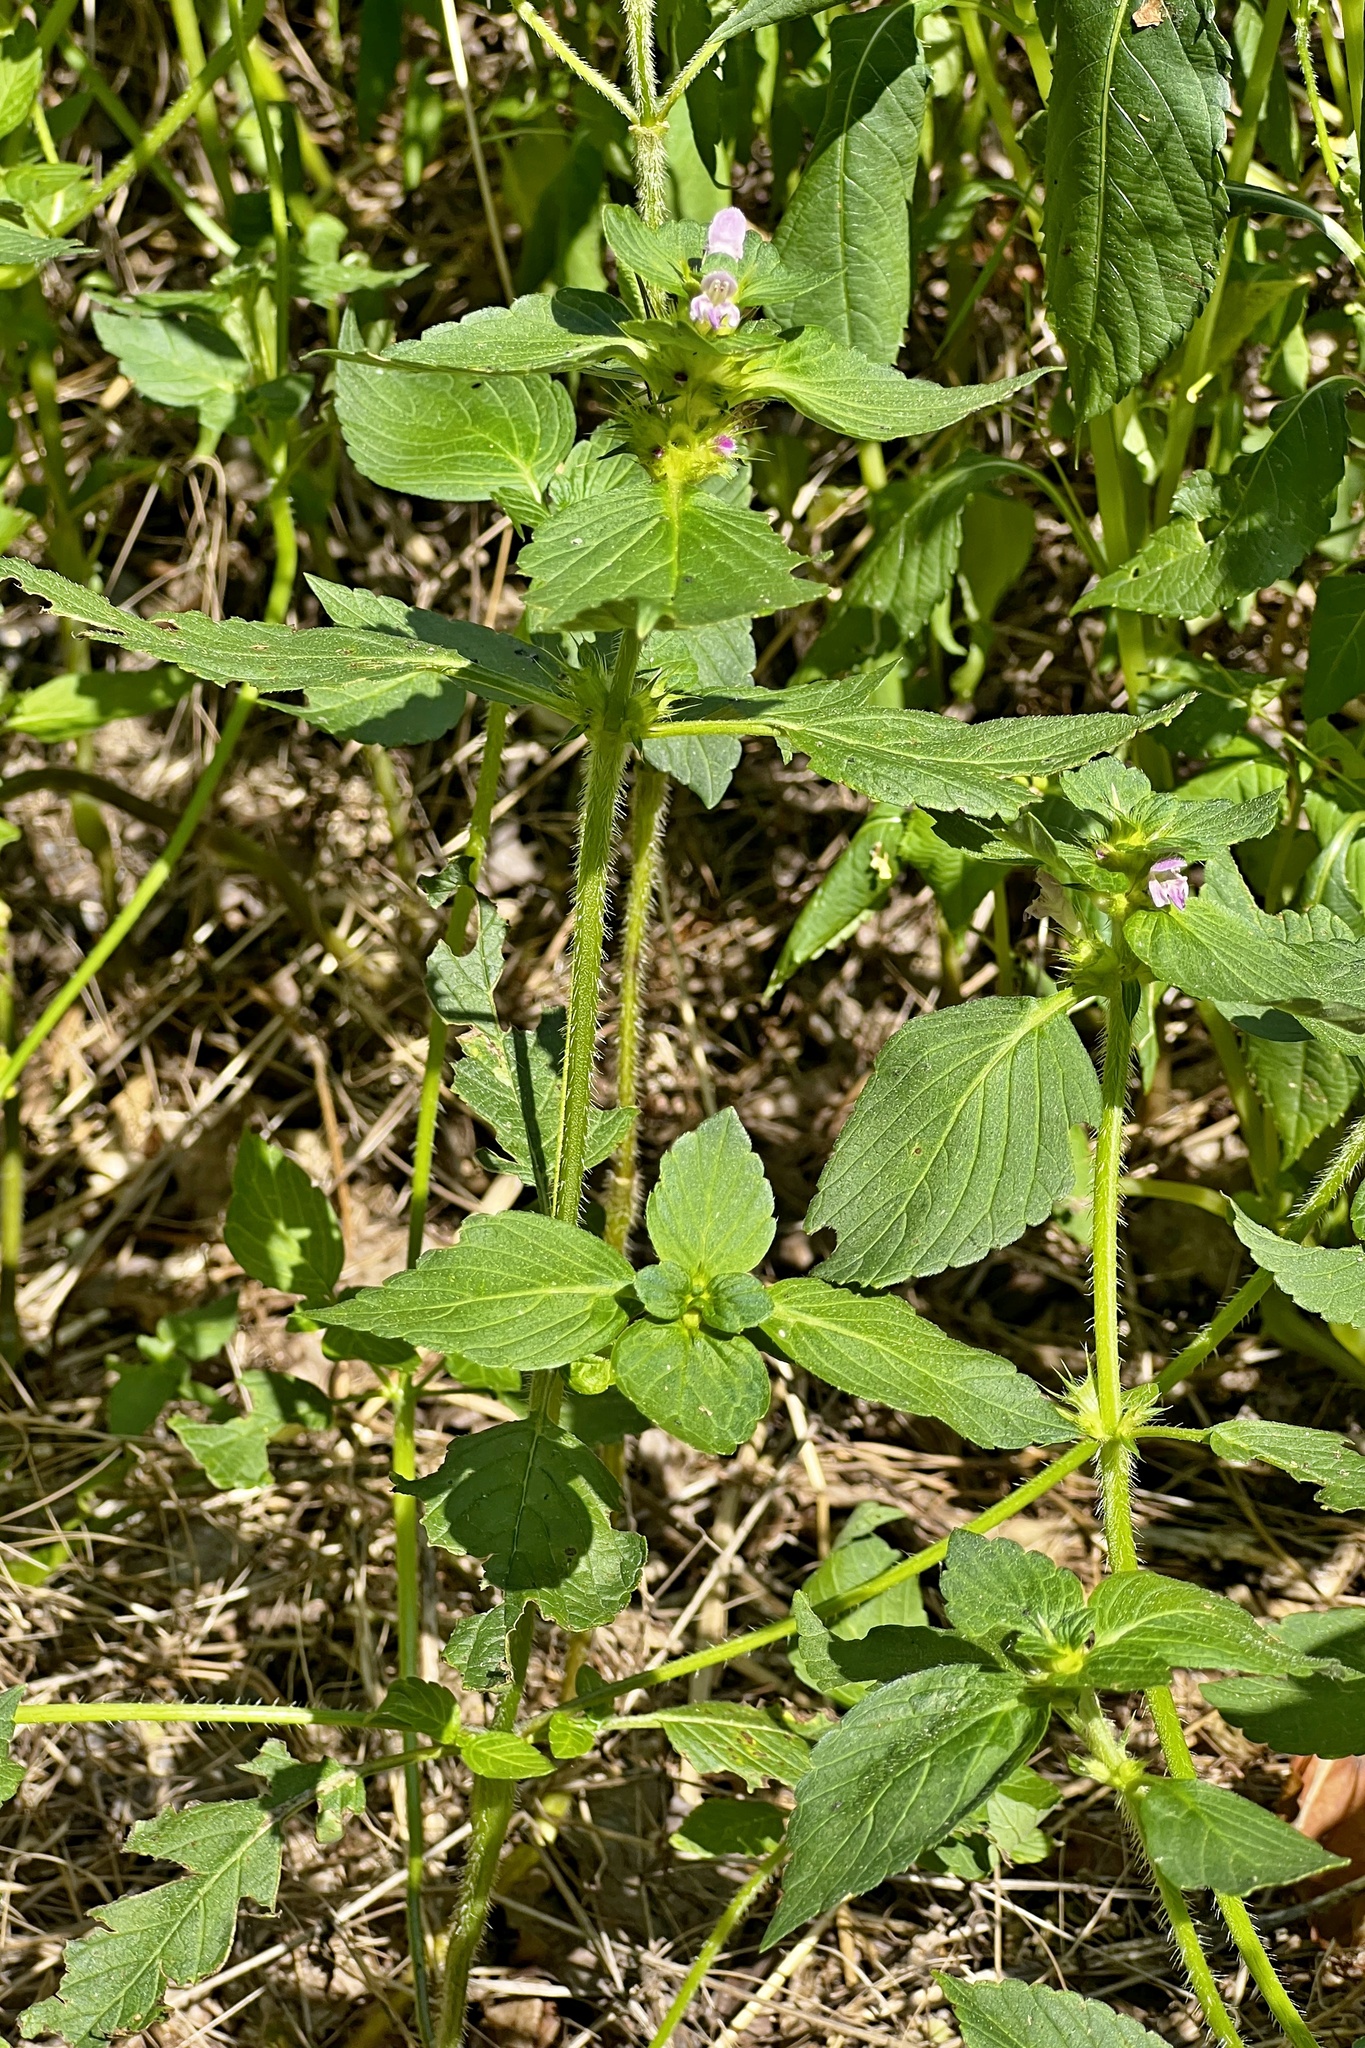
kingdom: Plantae
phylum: Tracheophyta
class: Magnoliopsida
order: Lamiales
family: Lamiaceae
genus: Galeopsis
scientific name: Galeopsis bifida
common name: Bifid hemp-nettle
